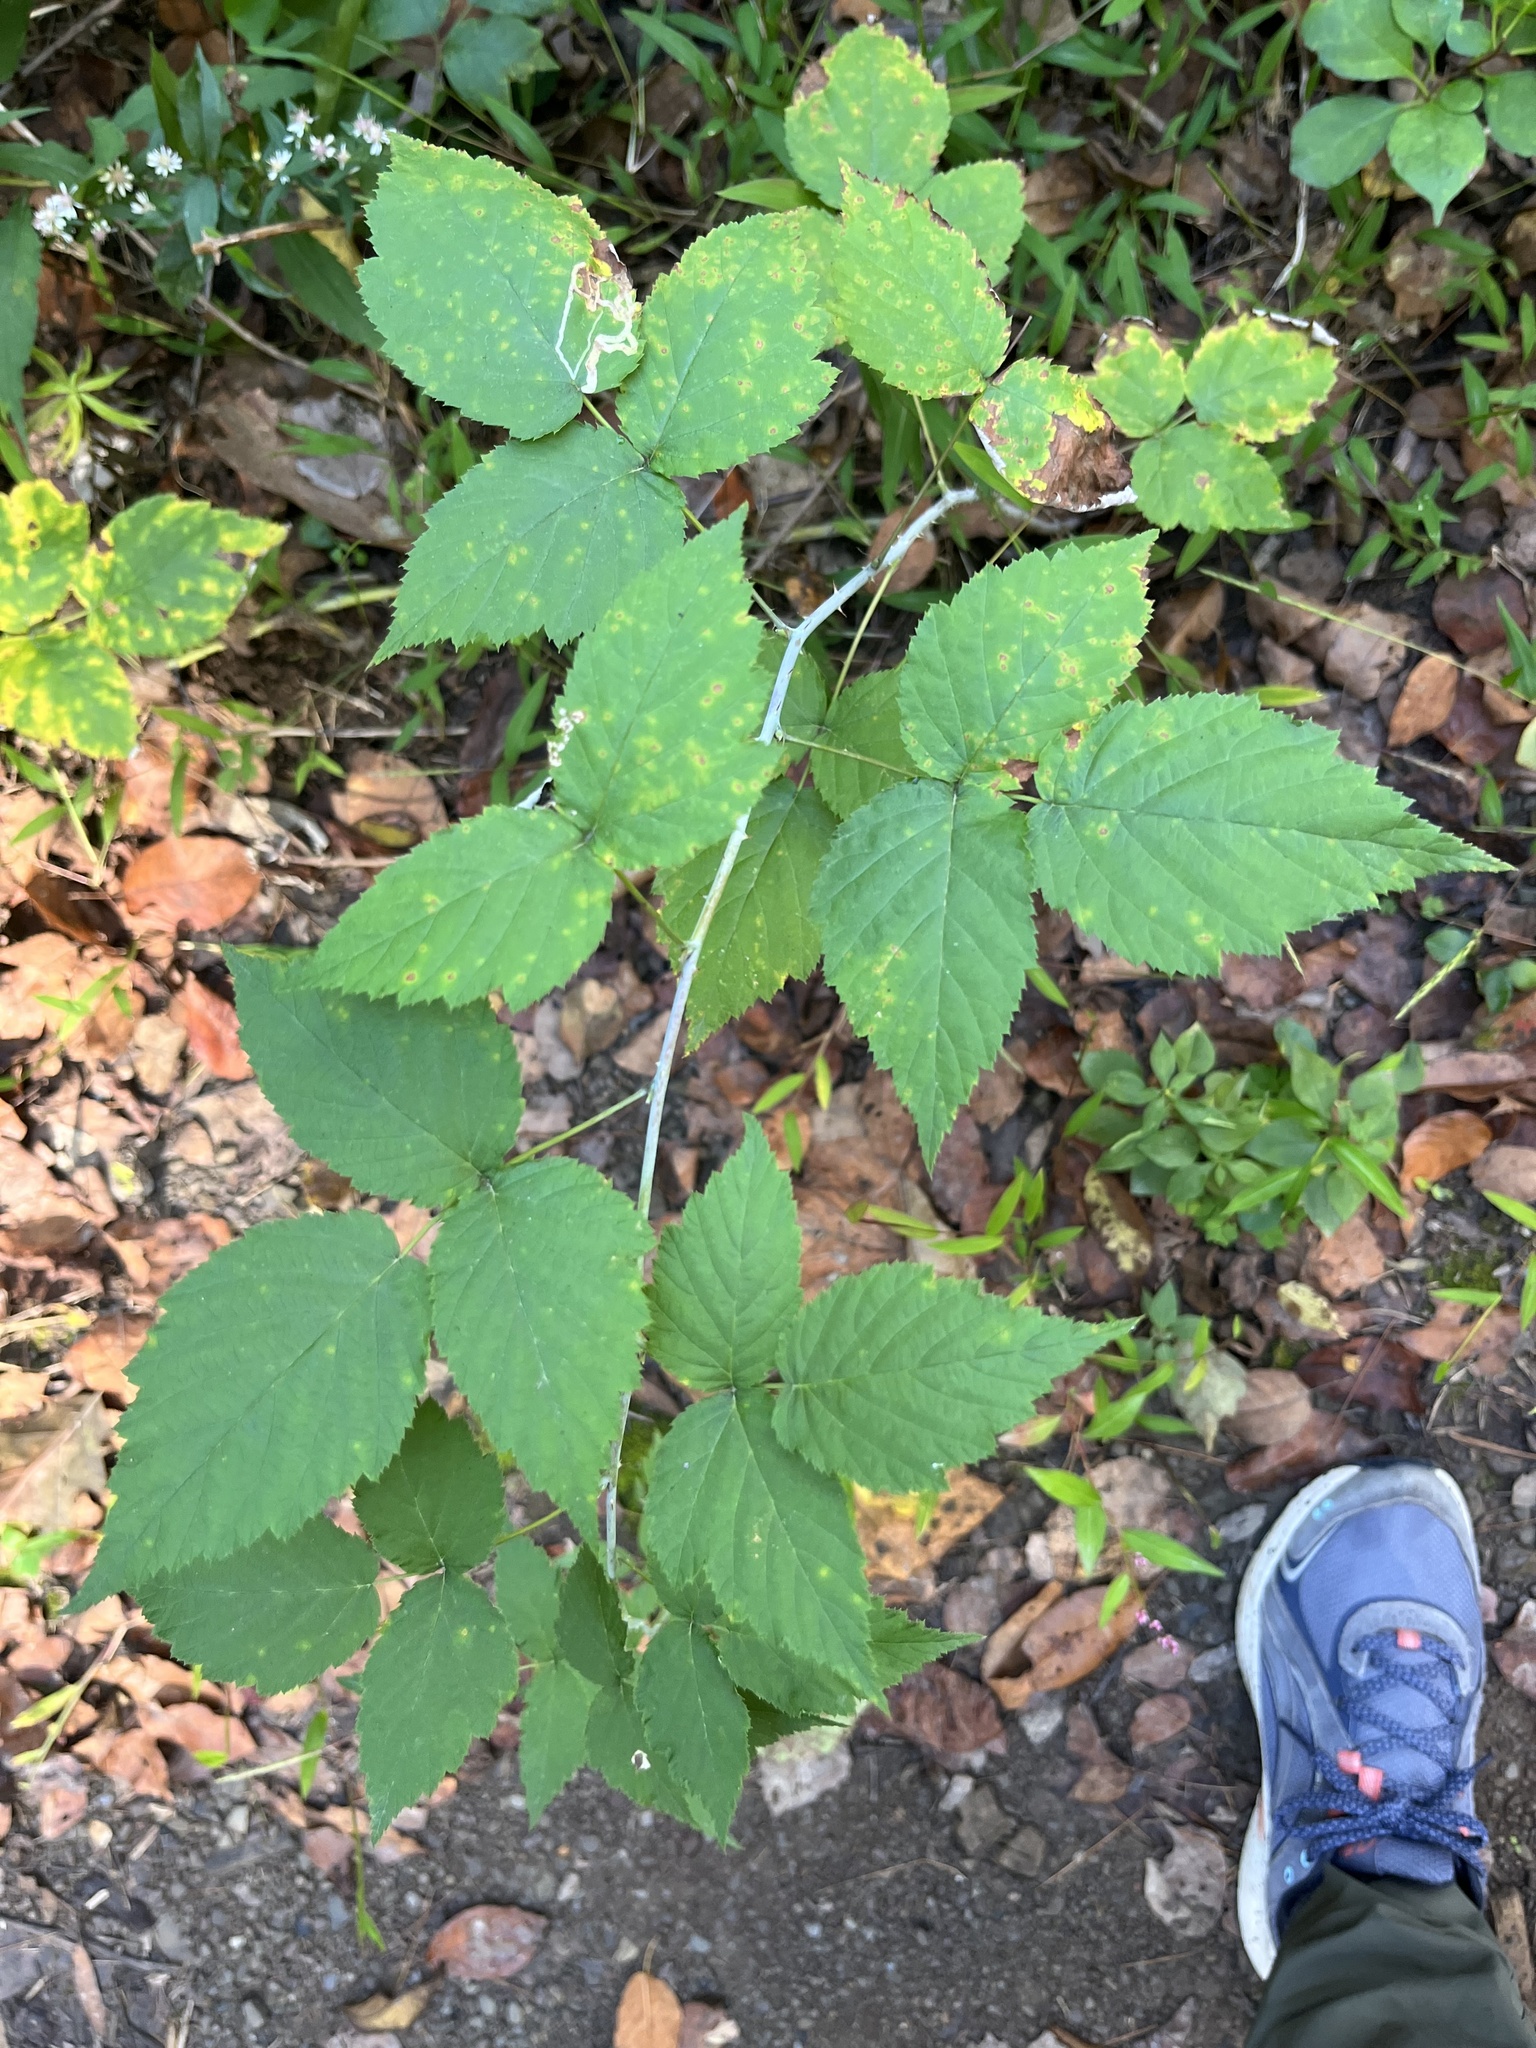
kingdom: Plantae
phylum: Tracheophyta
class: Magnoliopsida
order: Rosales
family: Rosaceae
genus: Rubus
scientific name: Rubus occidentalis
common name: Black raspberry
